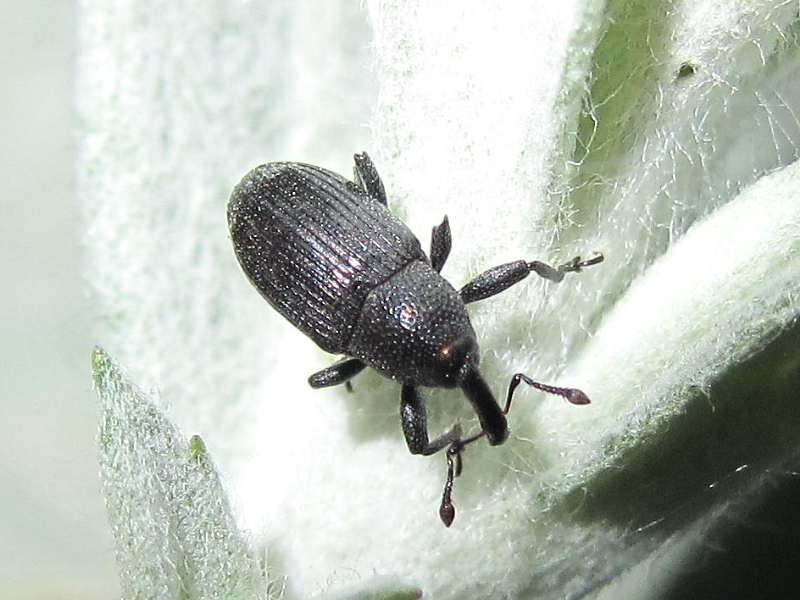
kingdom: Animalia
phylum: Arthropoda
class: Insecta
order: Coleoptera
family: Curculionidae
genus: Baris
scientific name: Baris artemisiae
